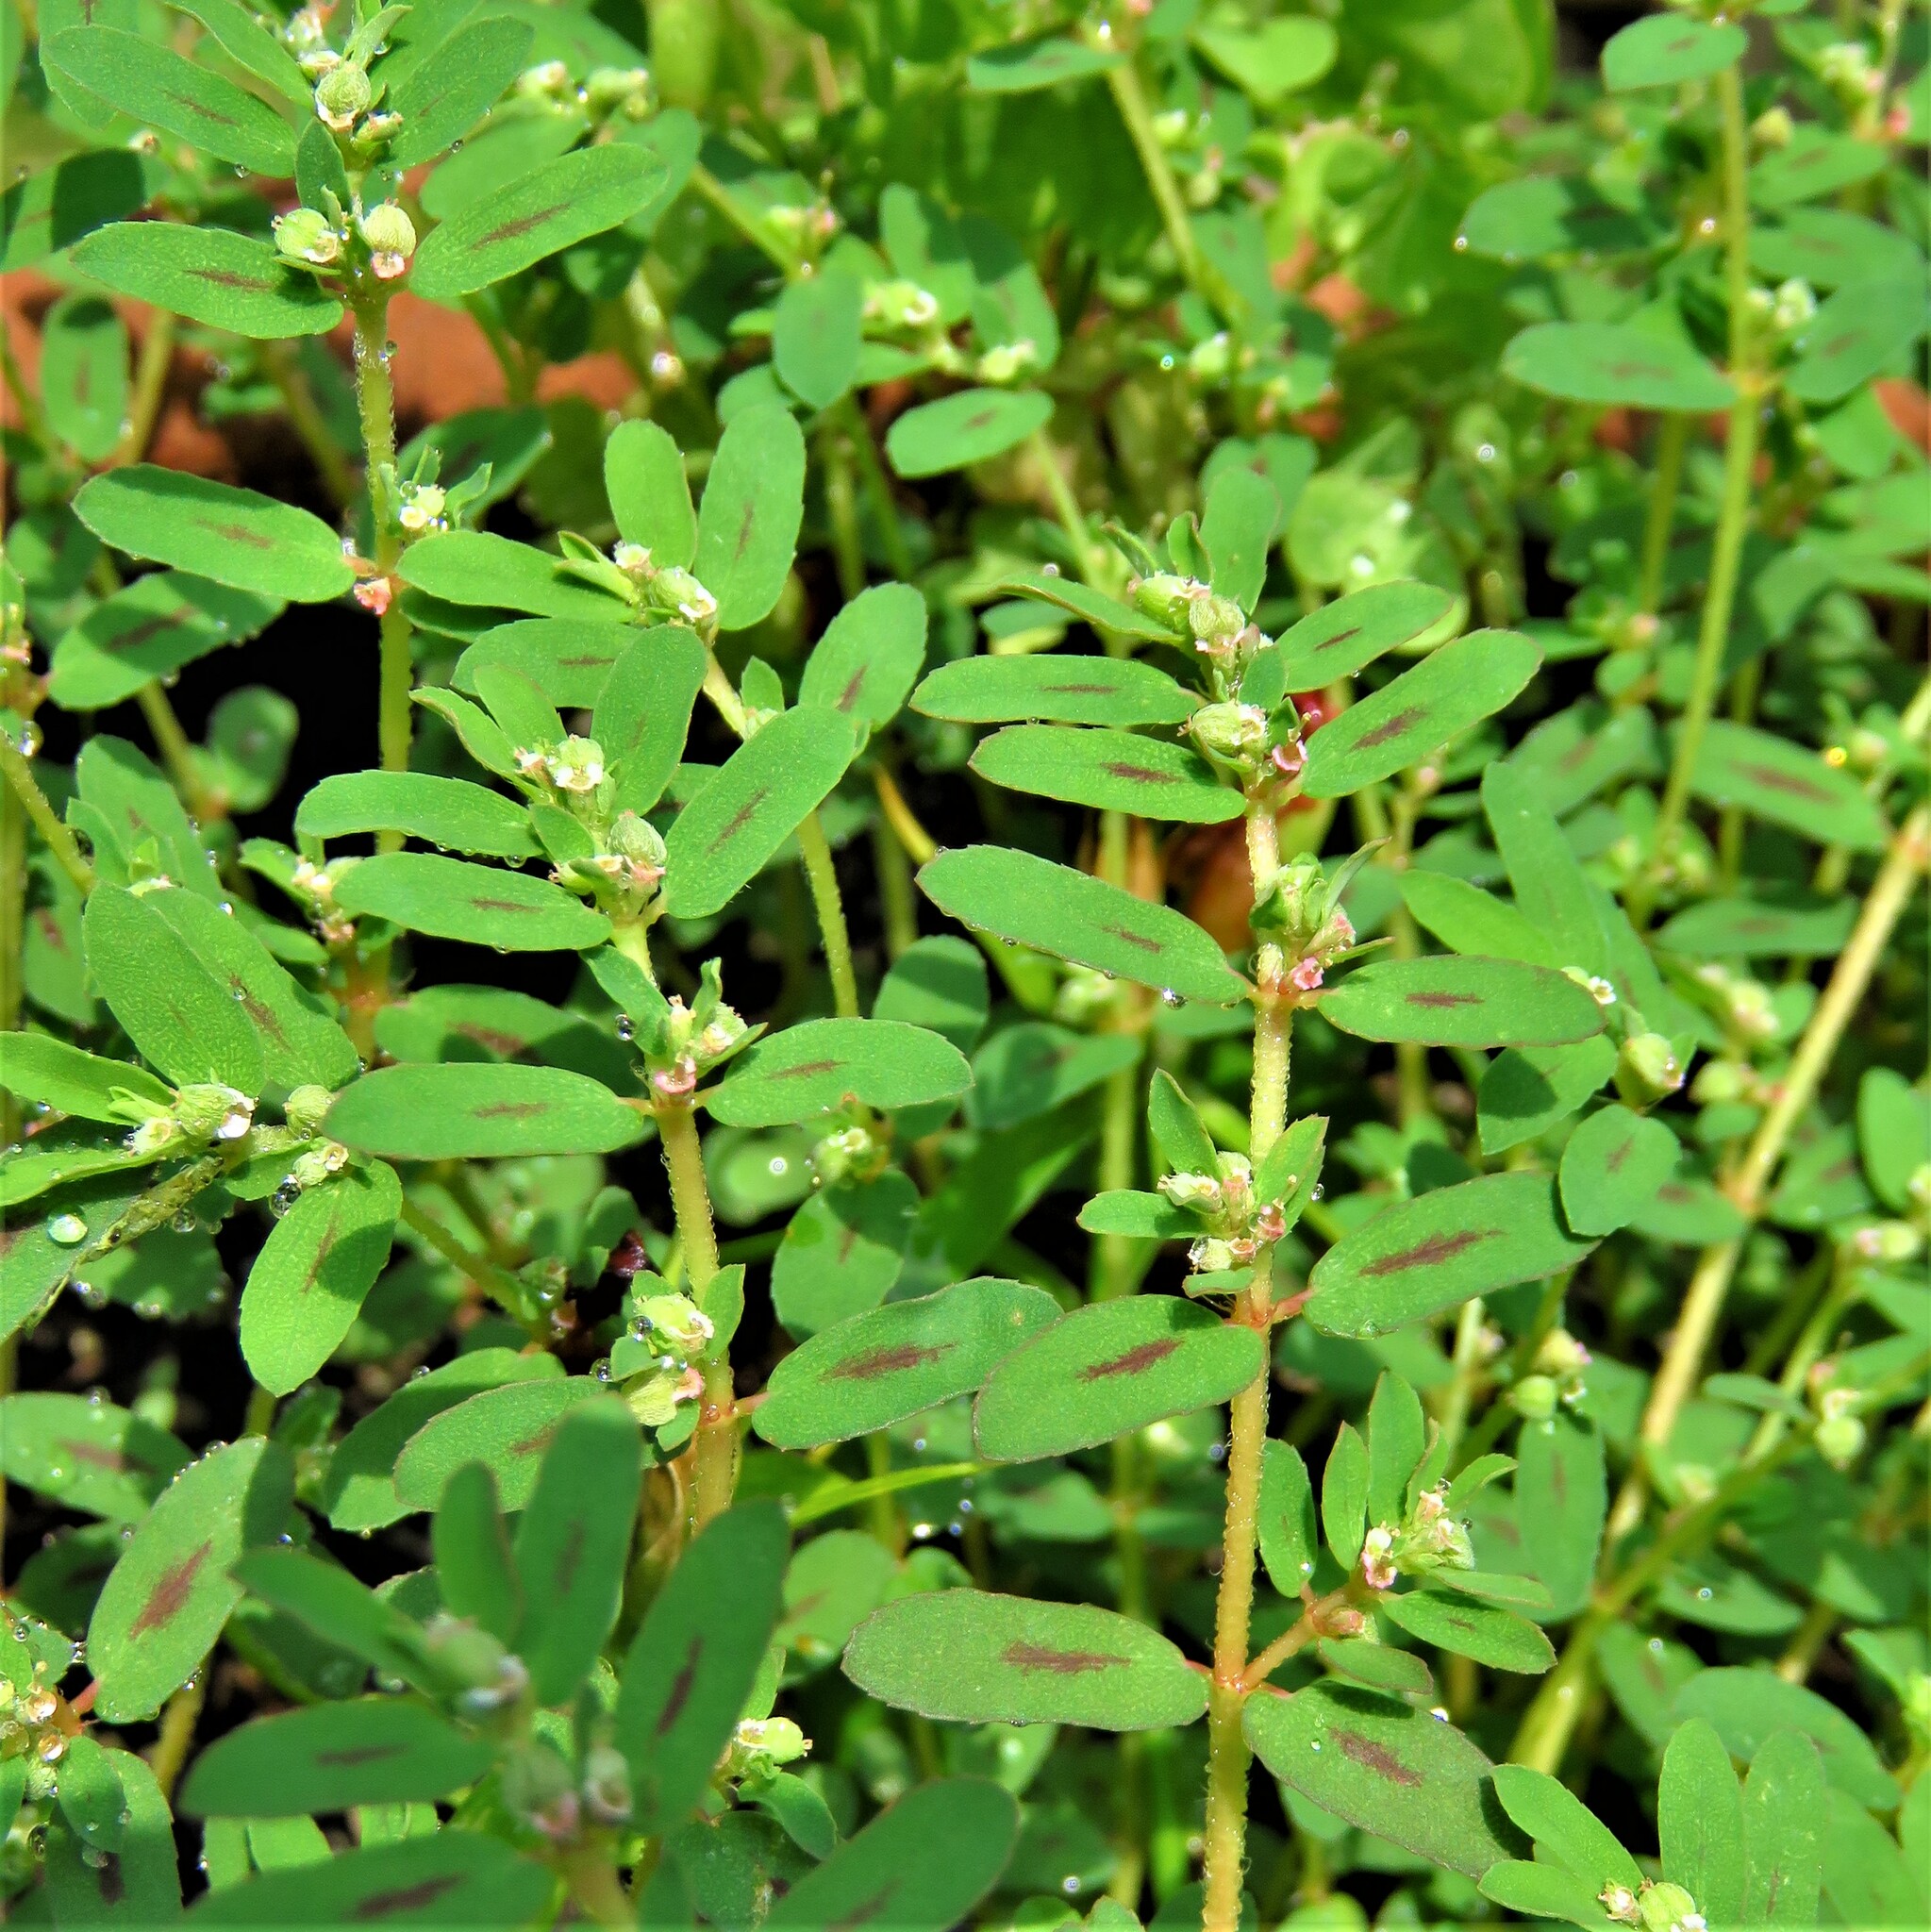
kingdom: Plantae
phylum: Tracheophyta
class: Magnoliopsida
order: Malpighiales
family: Euphorbiaceae
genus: Euphorbia
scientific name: Euphorbia maculata
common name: Spotted spurge
